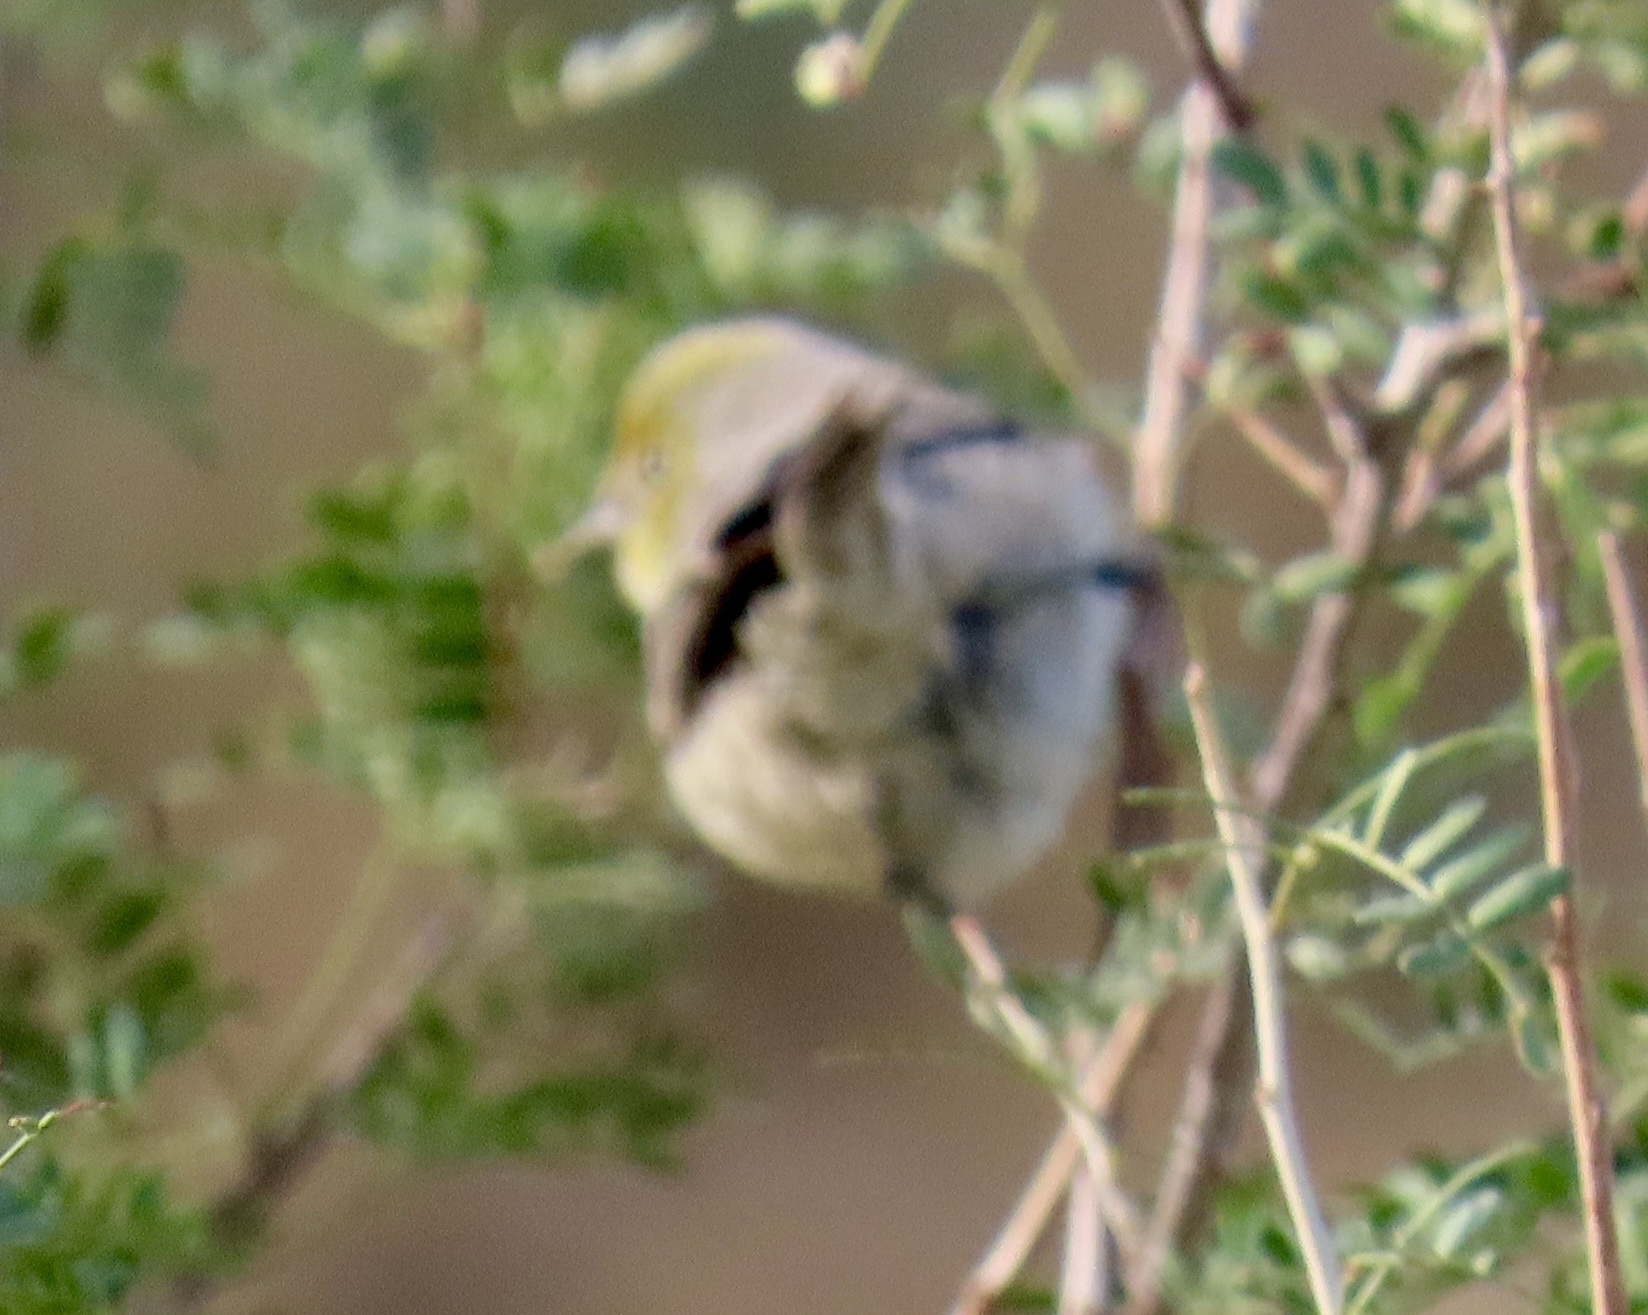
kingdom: Animalia
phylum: Chordata
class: Aves
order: Passeriformes
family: Remizidae
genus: Auriparus
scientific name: Auriparus flaviceps
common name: Verdin
